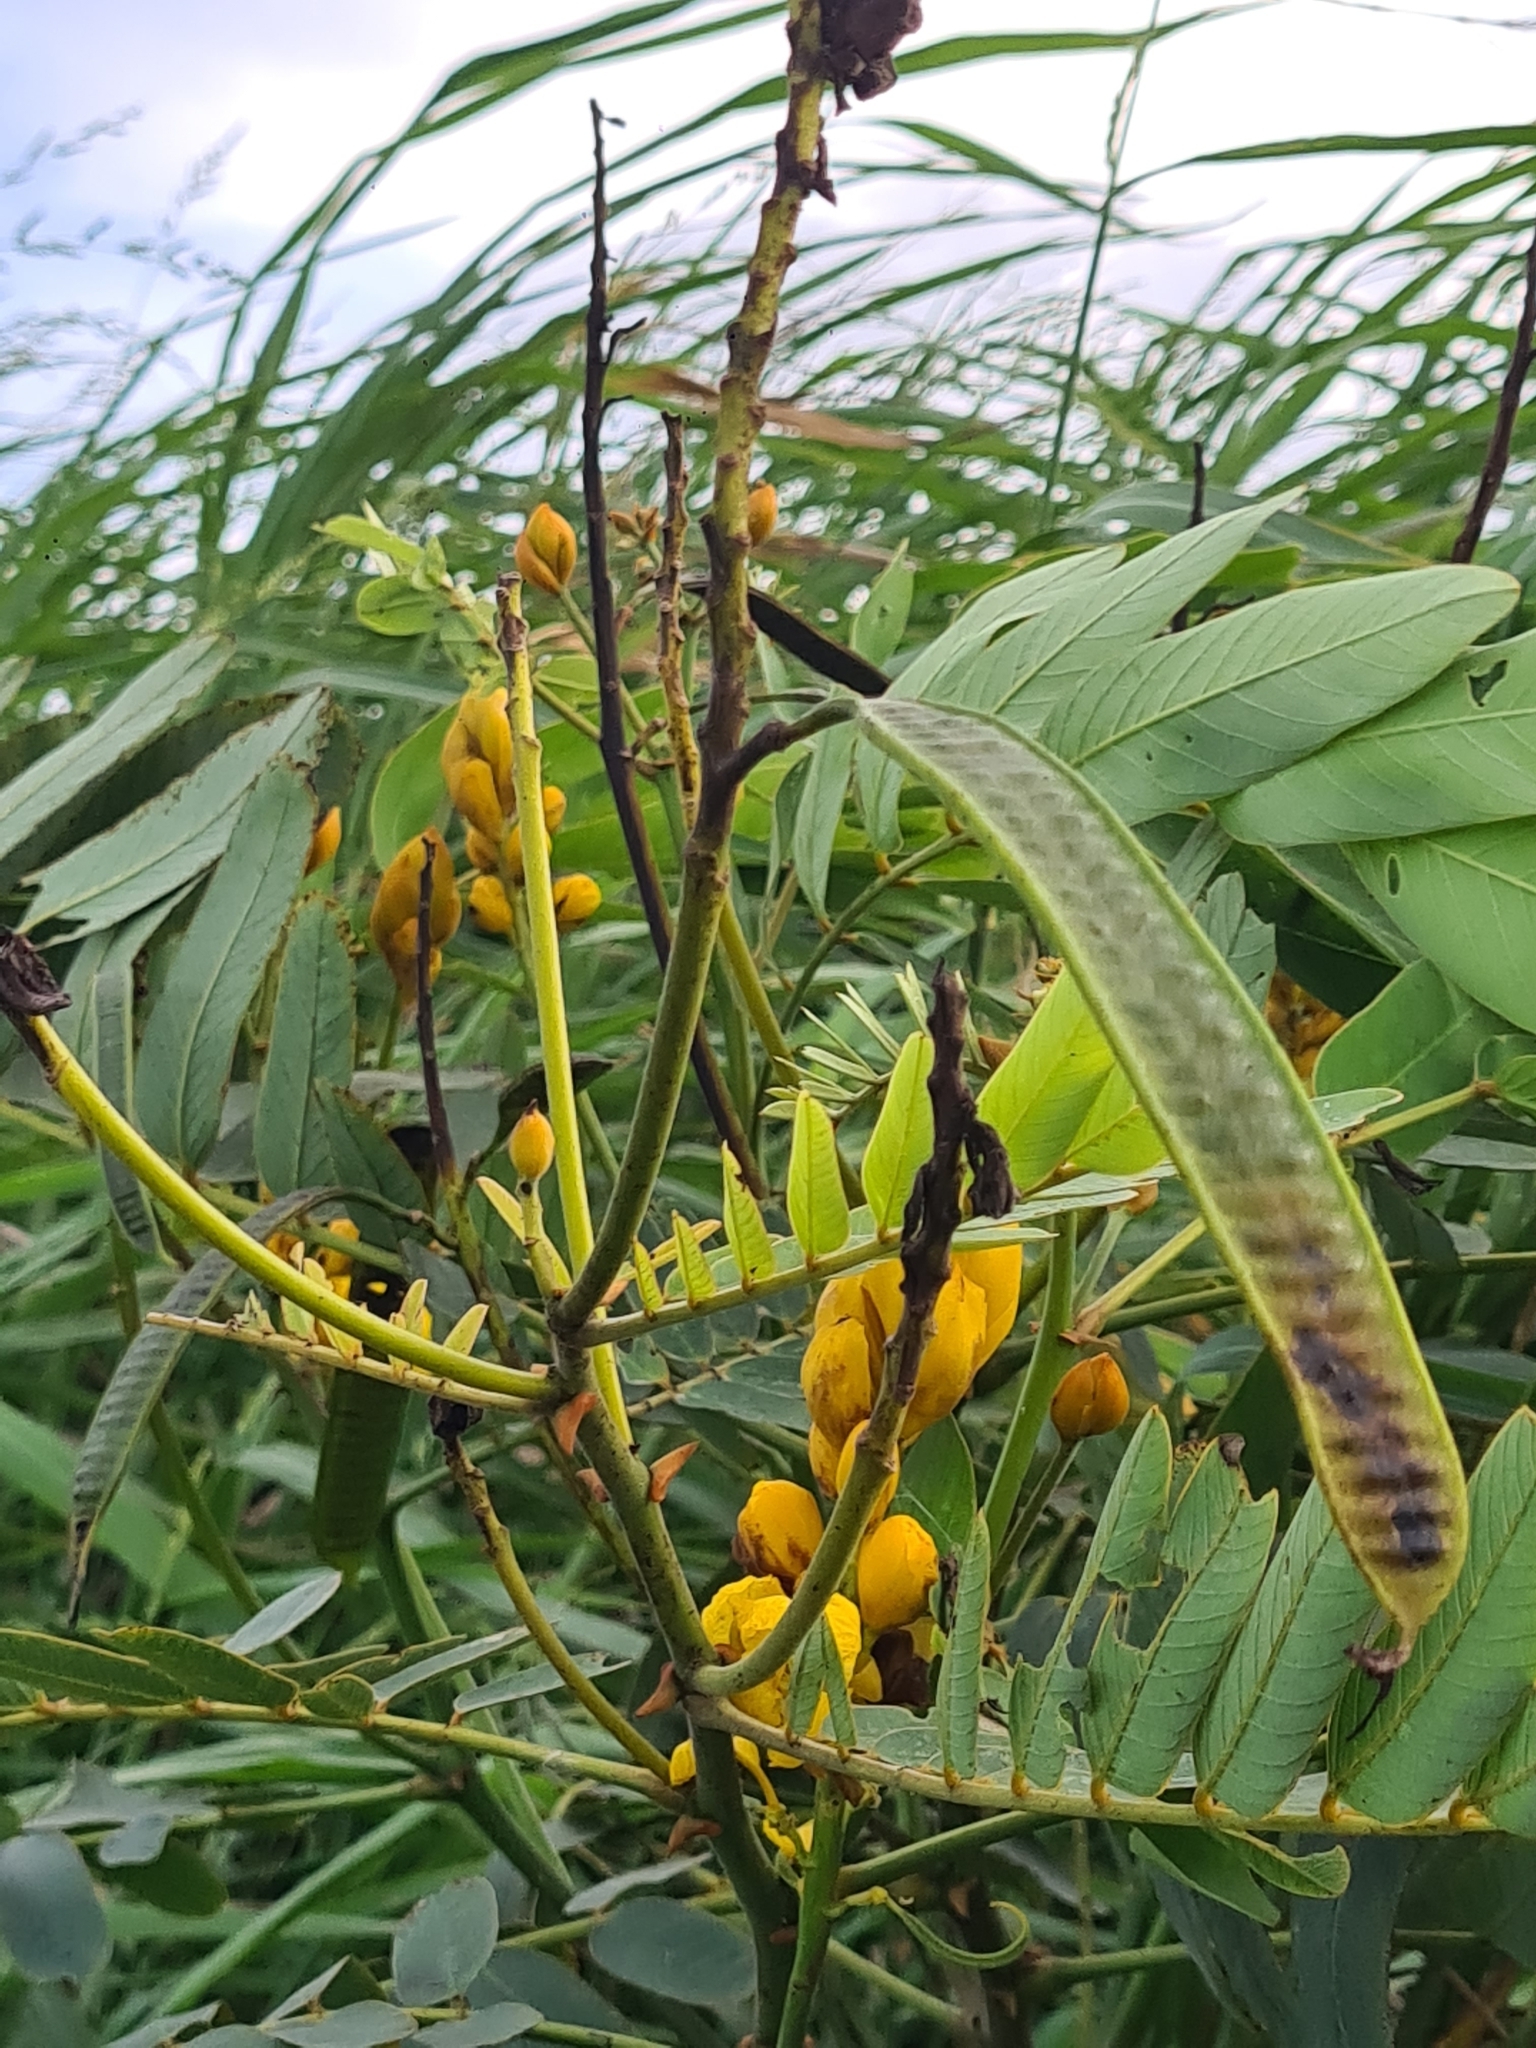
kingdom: Plantae
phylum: Tracheophyta
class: Magnoliopsida
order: Fabales
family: Fabaceae
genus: Senna
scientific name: Senna reticulata
